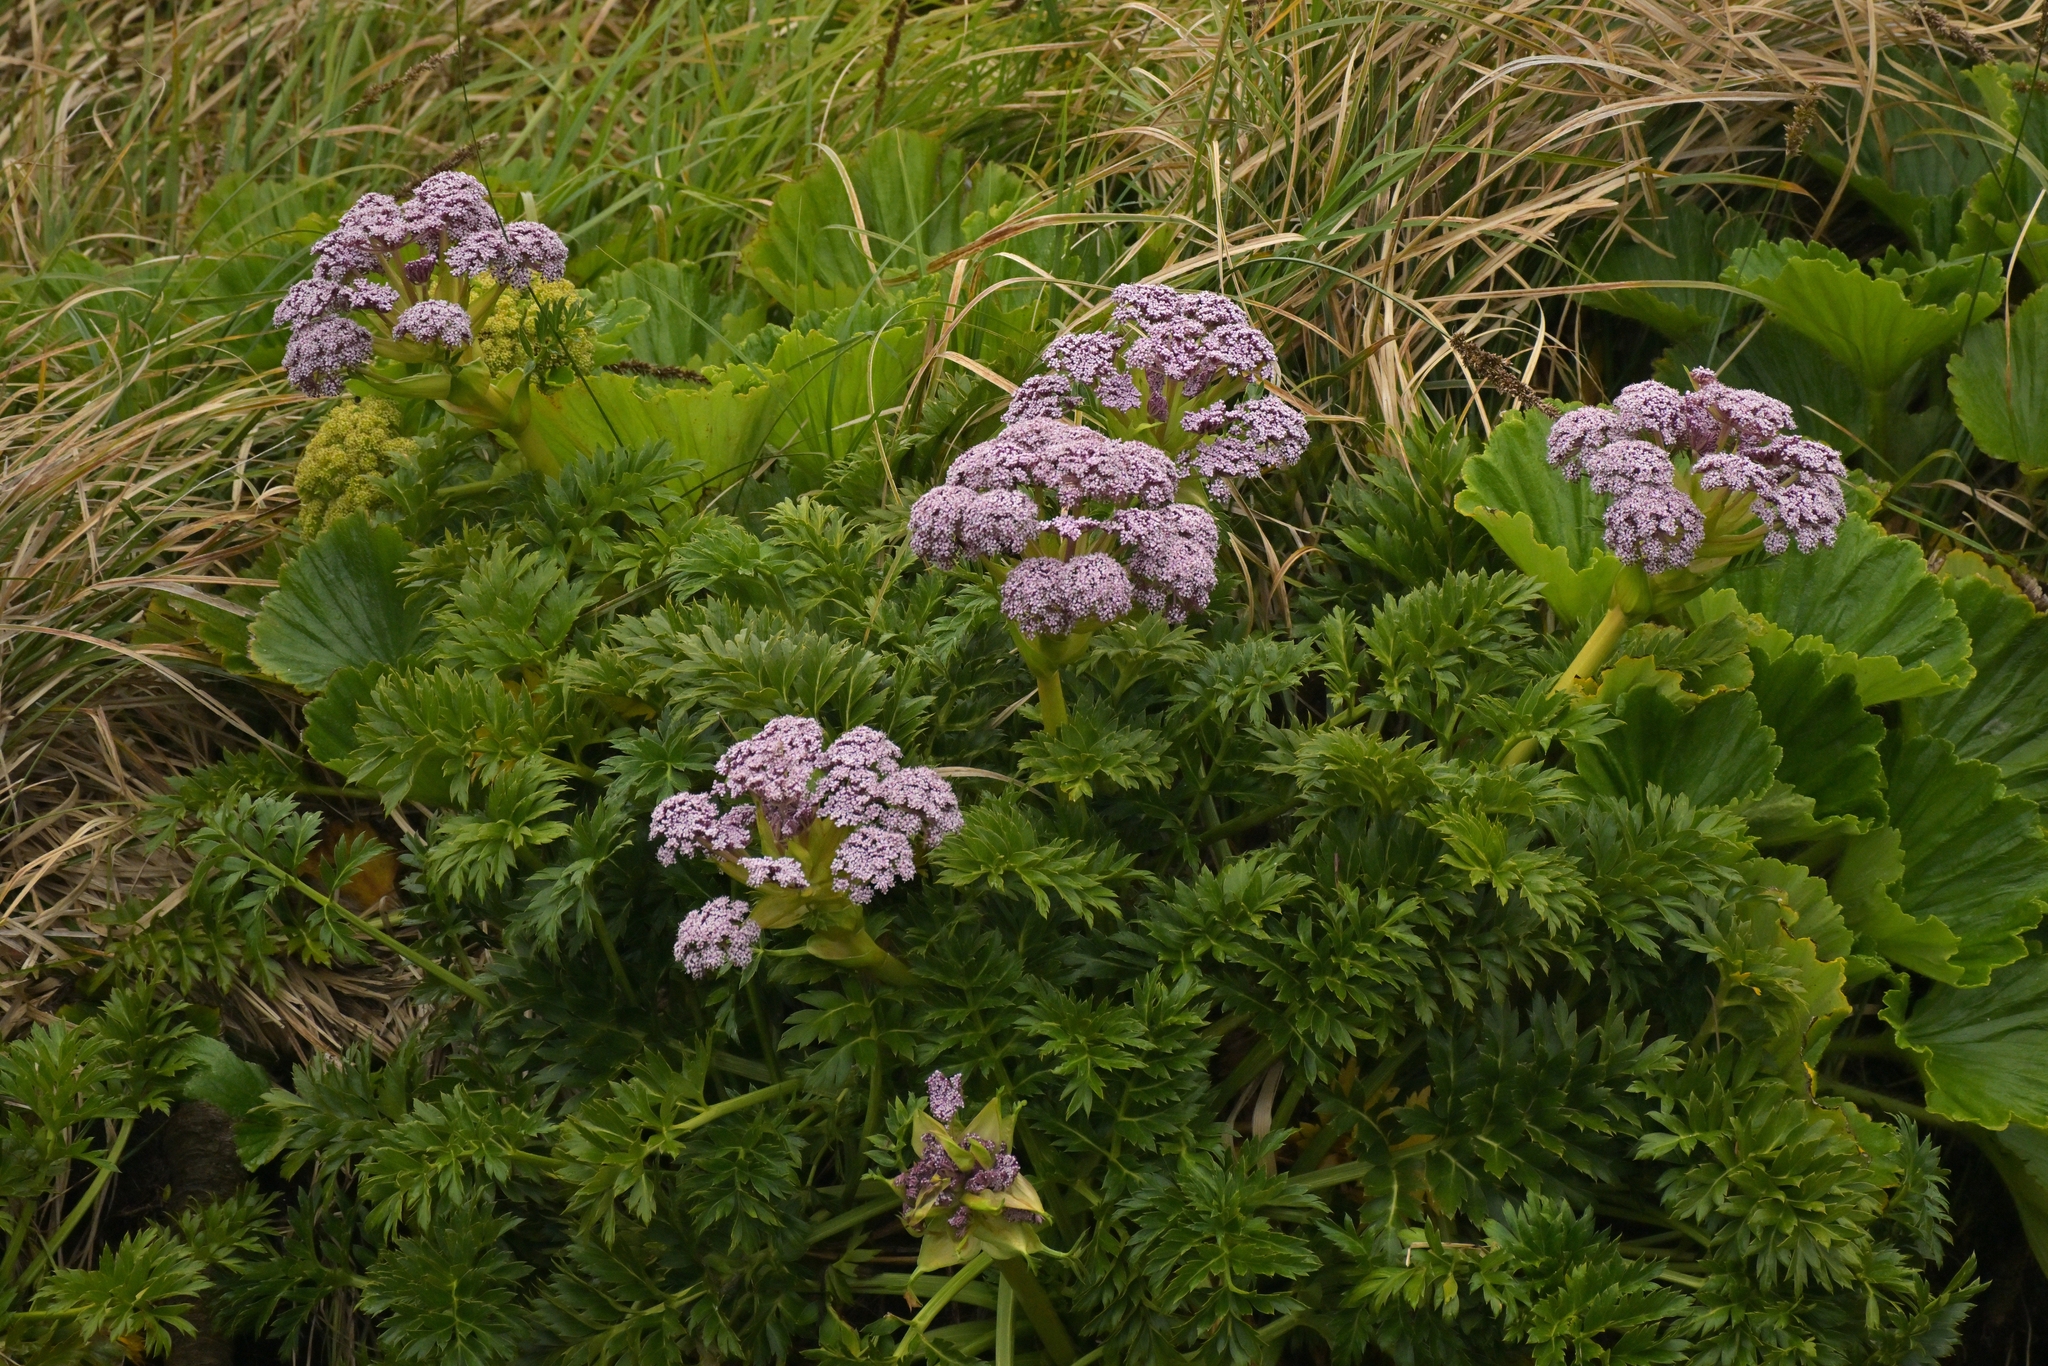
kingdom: Plantae
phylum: Tracheophyta
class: Magnoliopsida
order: Apiales
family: Apiaceae
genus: Anisotome
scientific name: Anisotome latifolia
